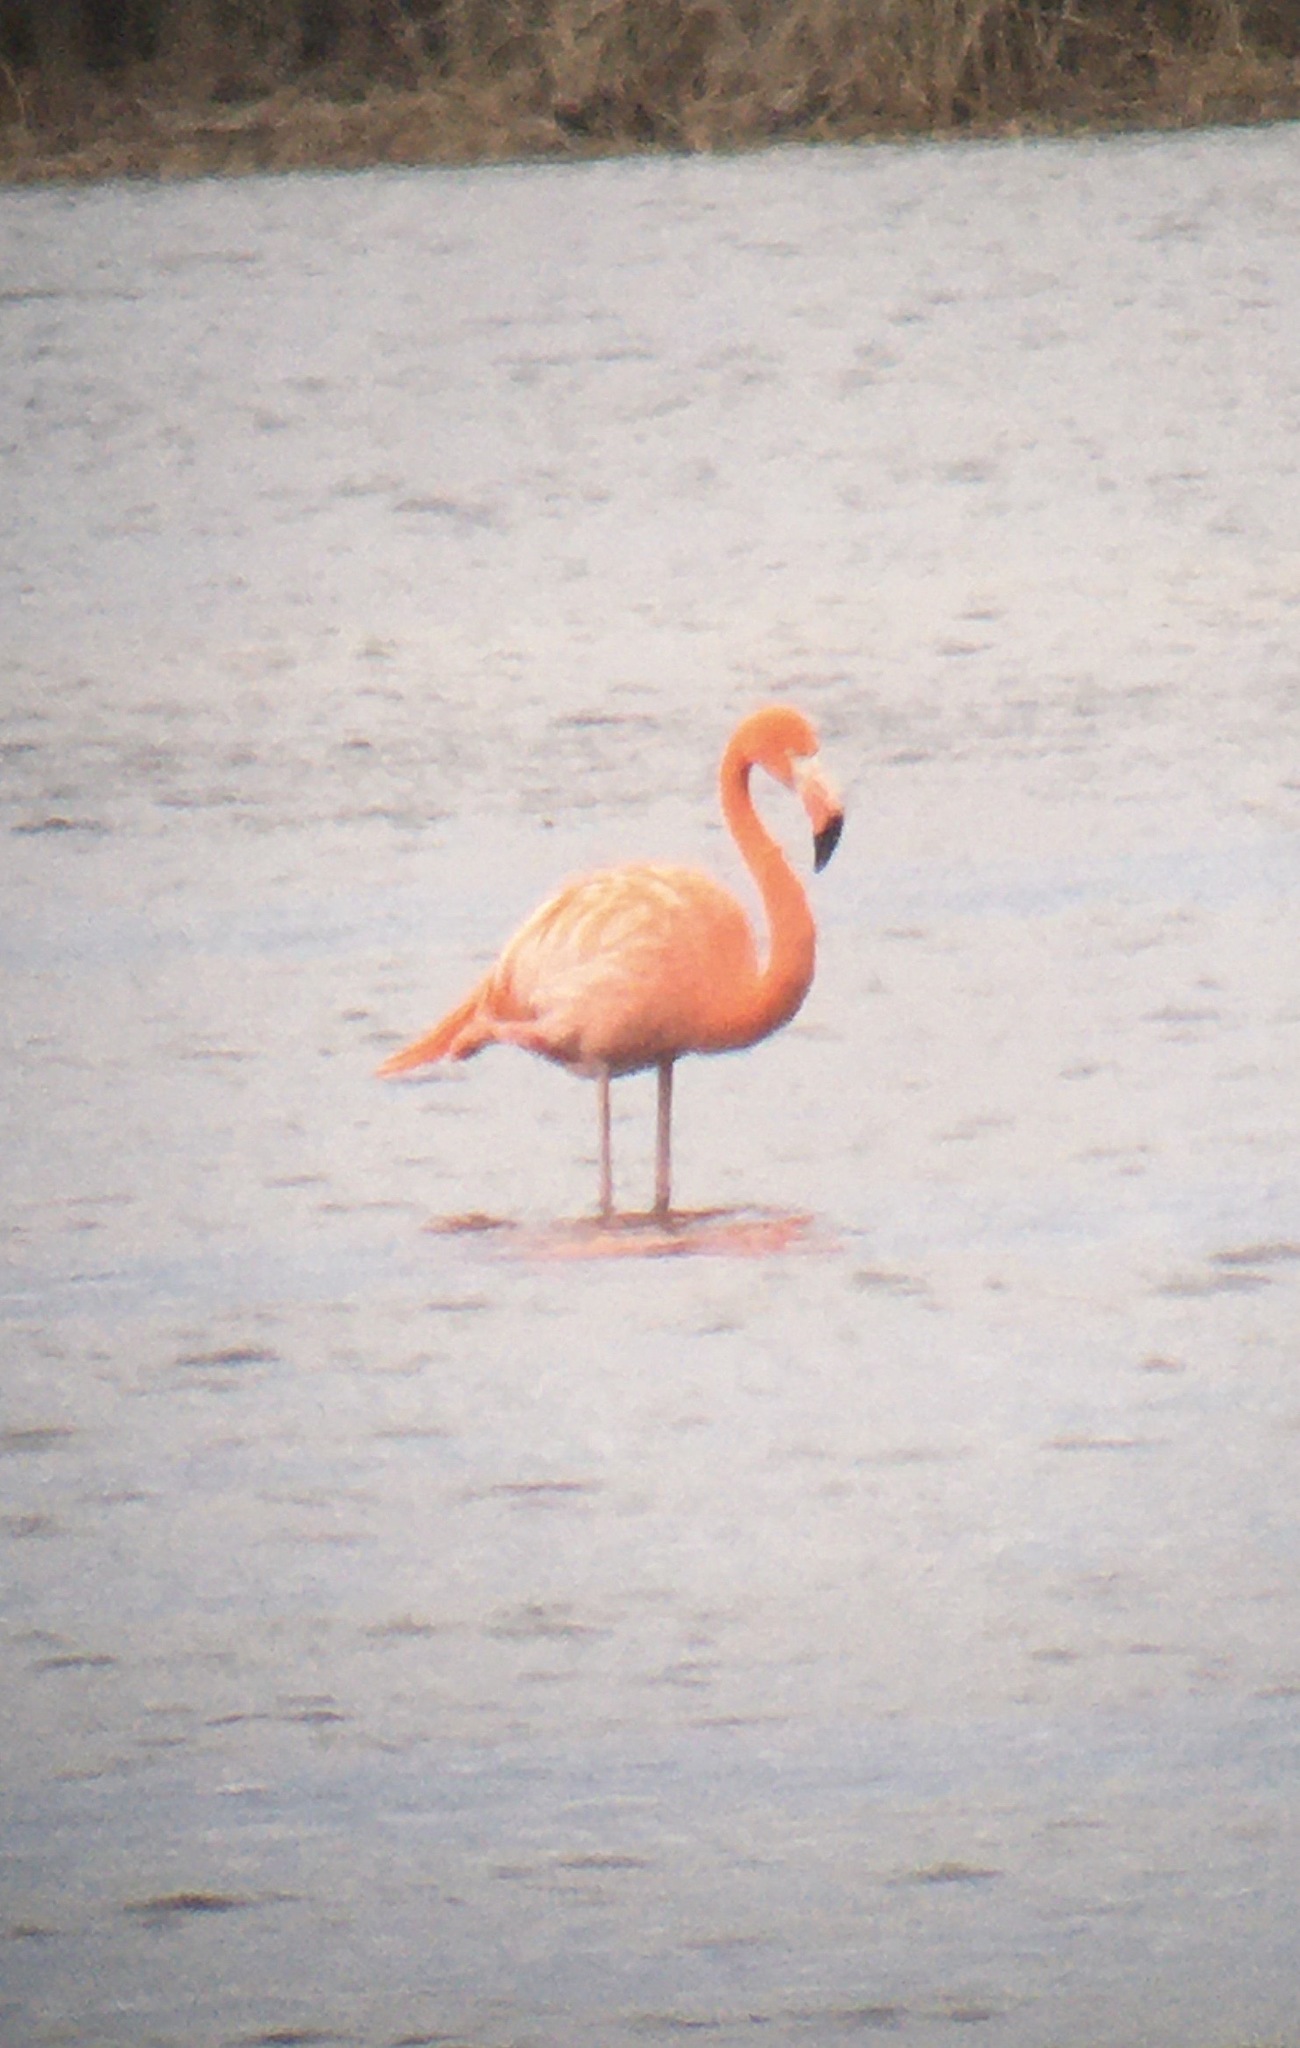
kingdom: Animalia
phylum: Chordata
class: Aves
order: Phoenicopteriformes
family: Phoenicopteridae
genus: Phoenicopterus
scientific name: Phoenicopterus ruber
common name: American flamingo
